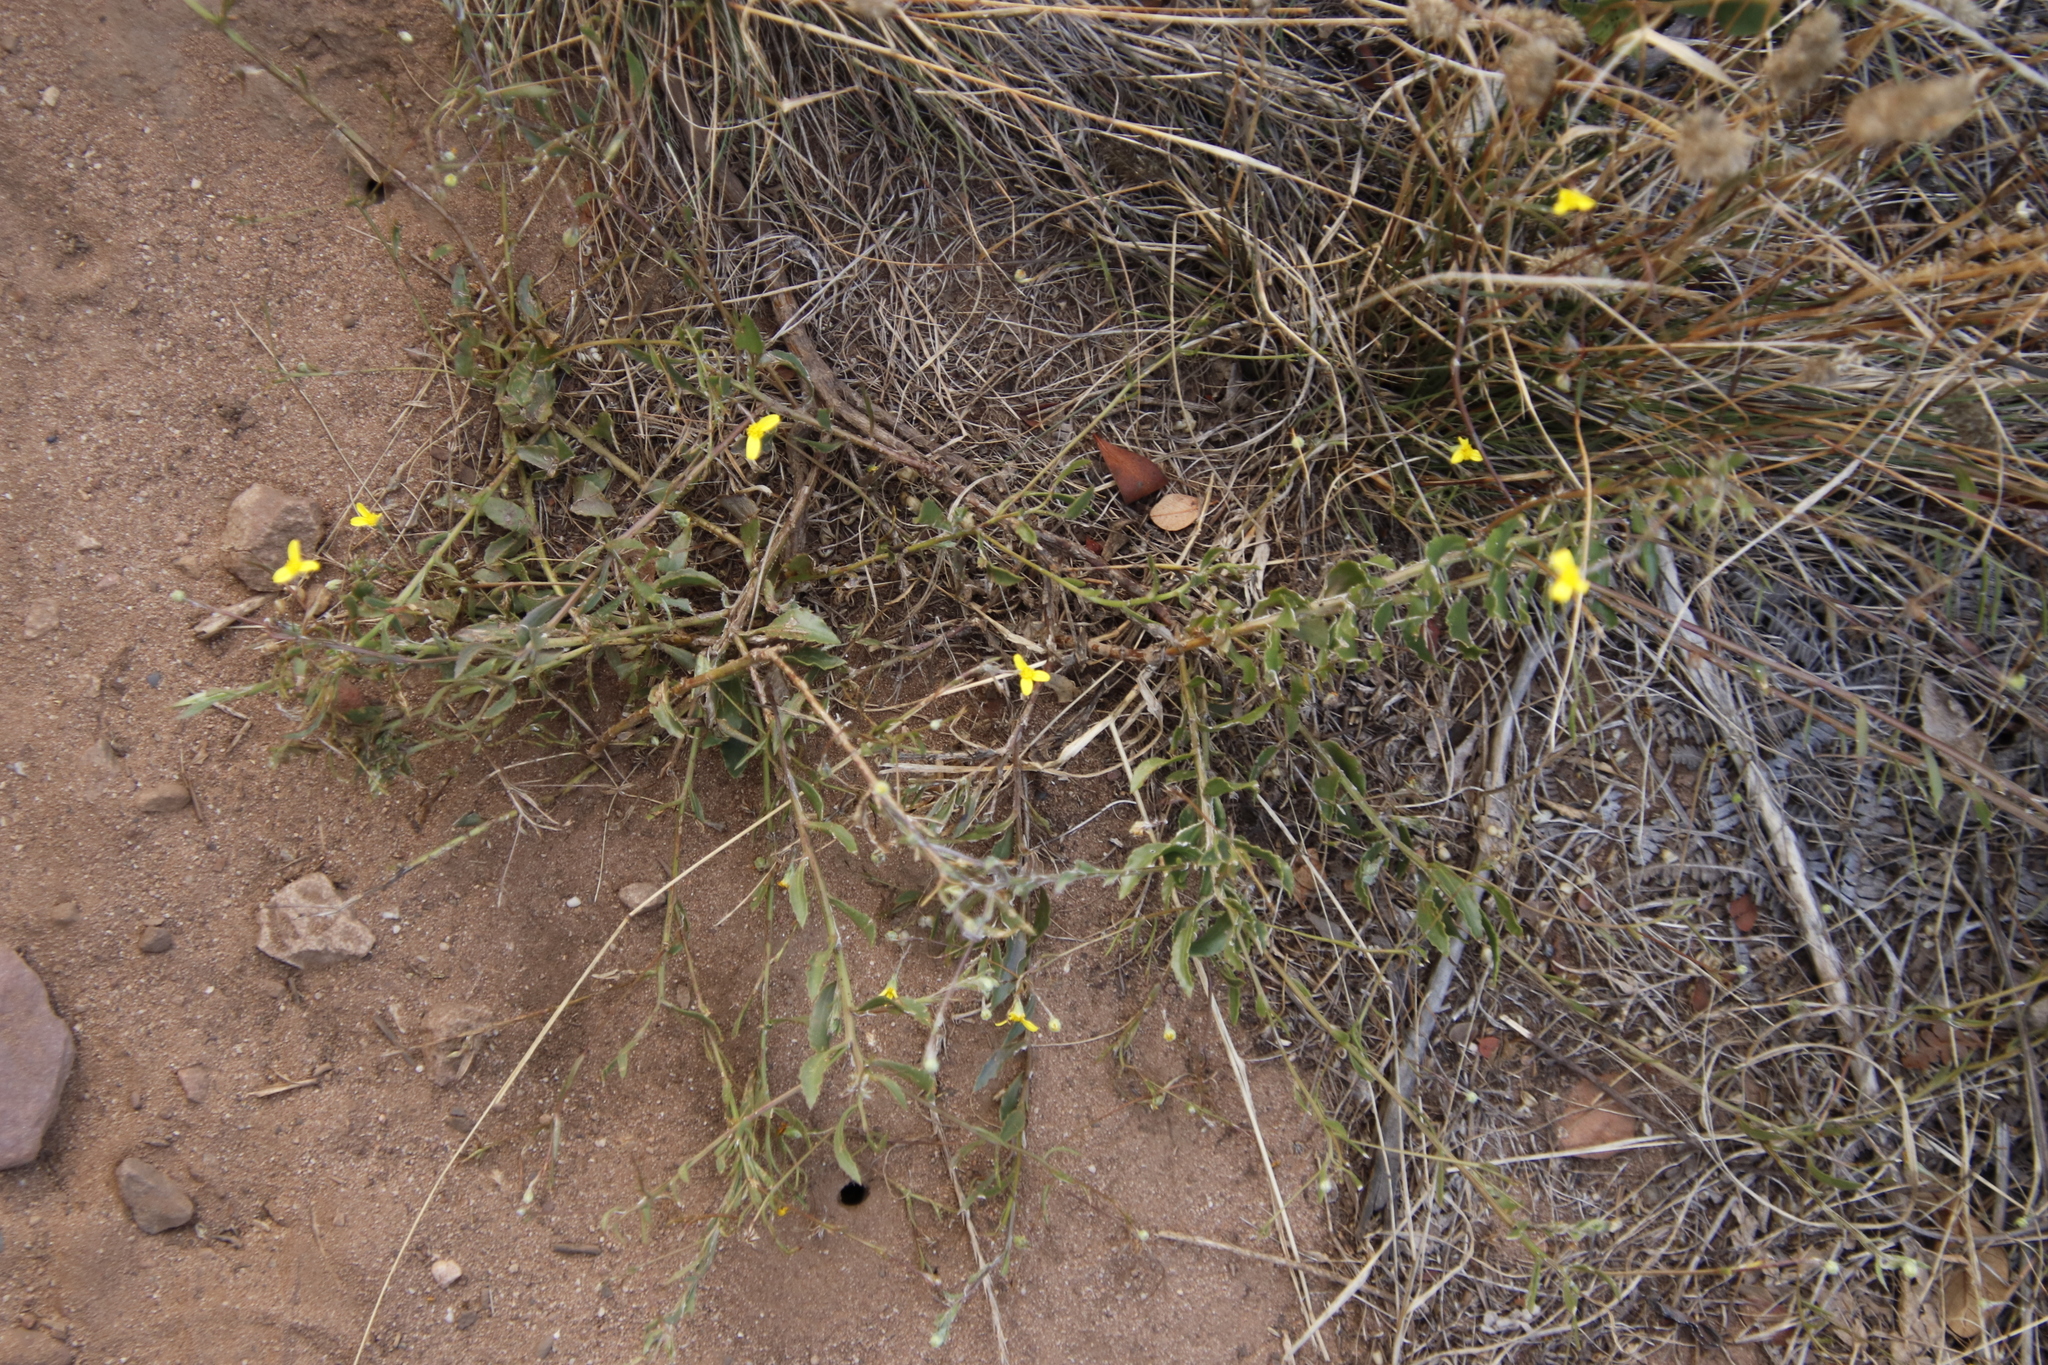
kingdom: Plantae
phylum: Tracheophyta
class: Magnoliopsida
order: Asterales
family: Asteraceae
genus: Osteospermum
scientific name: Osteospermum ciliatum
